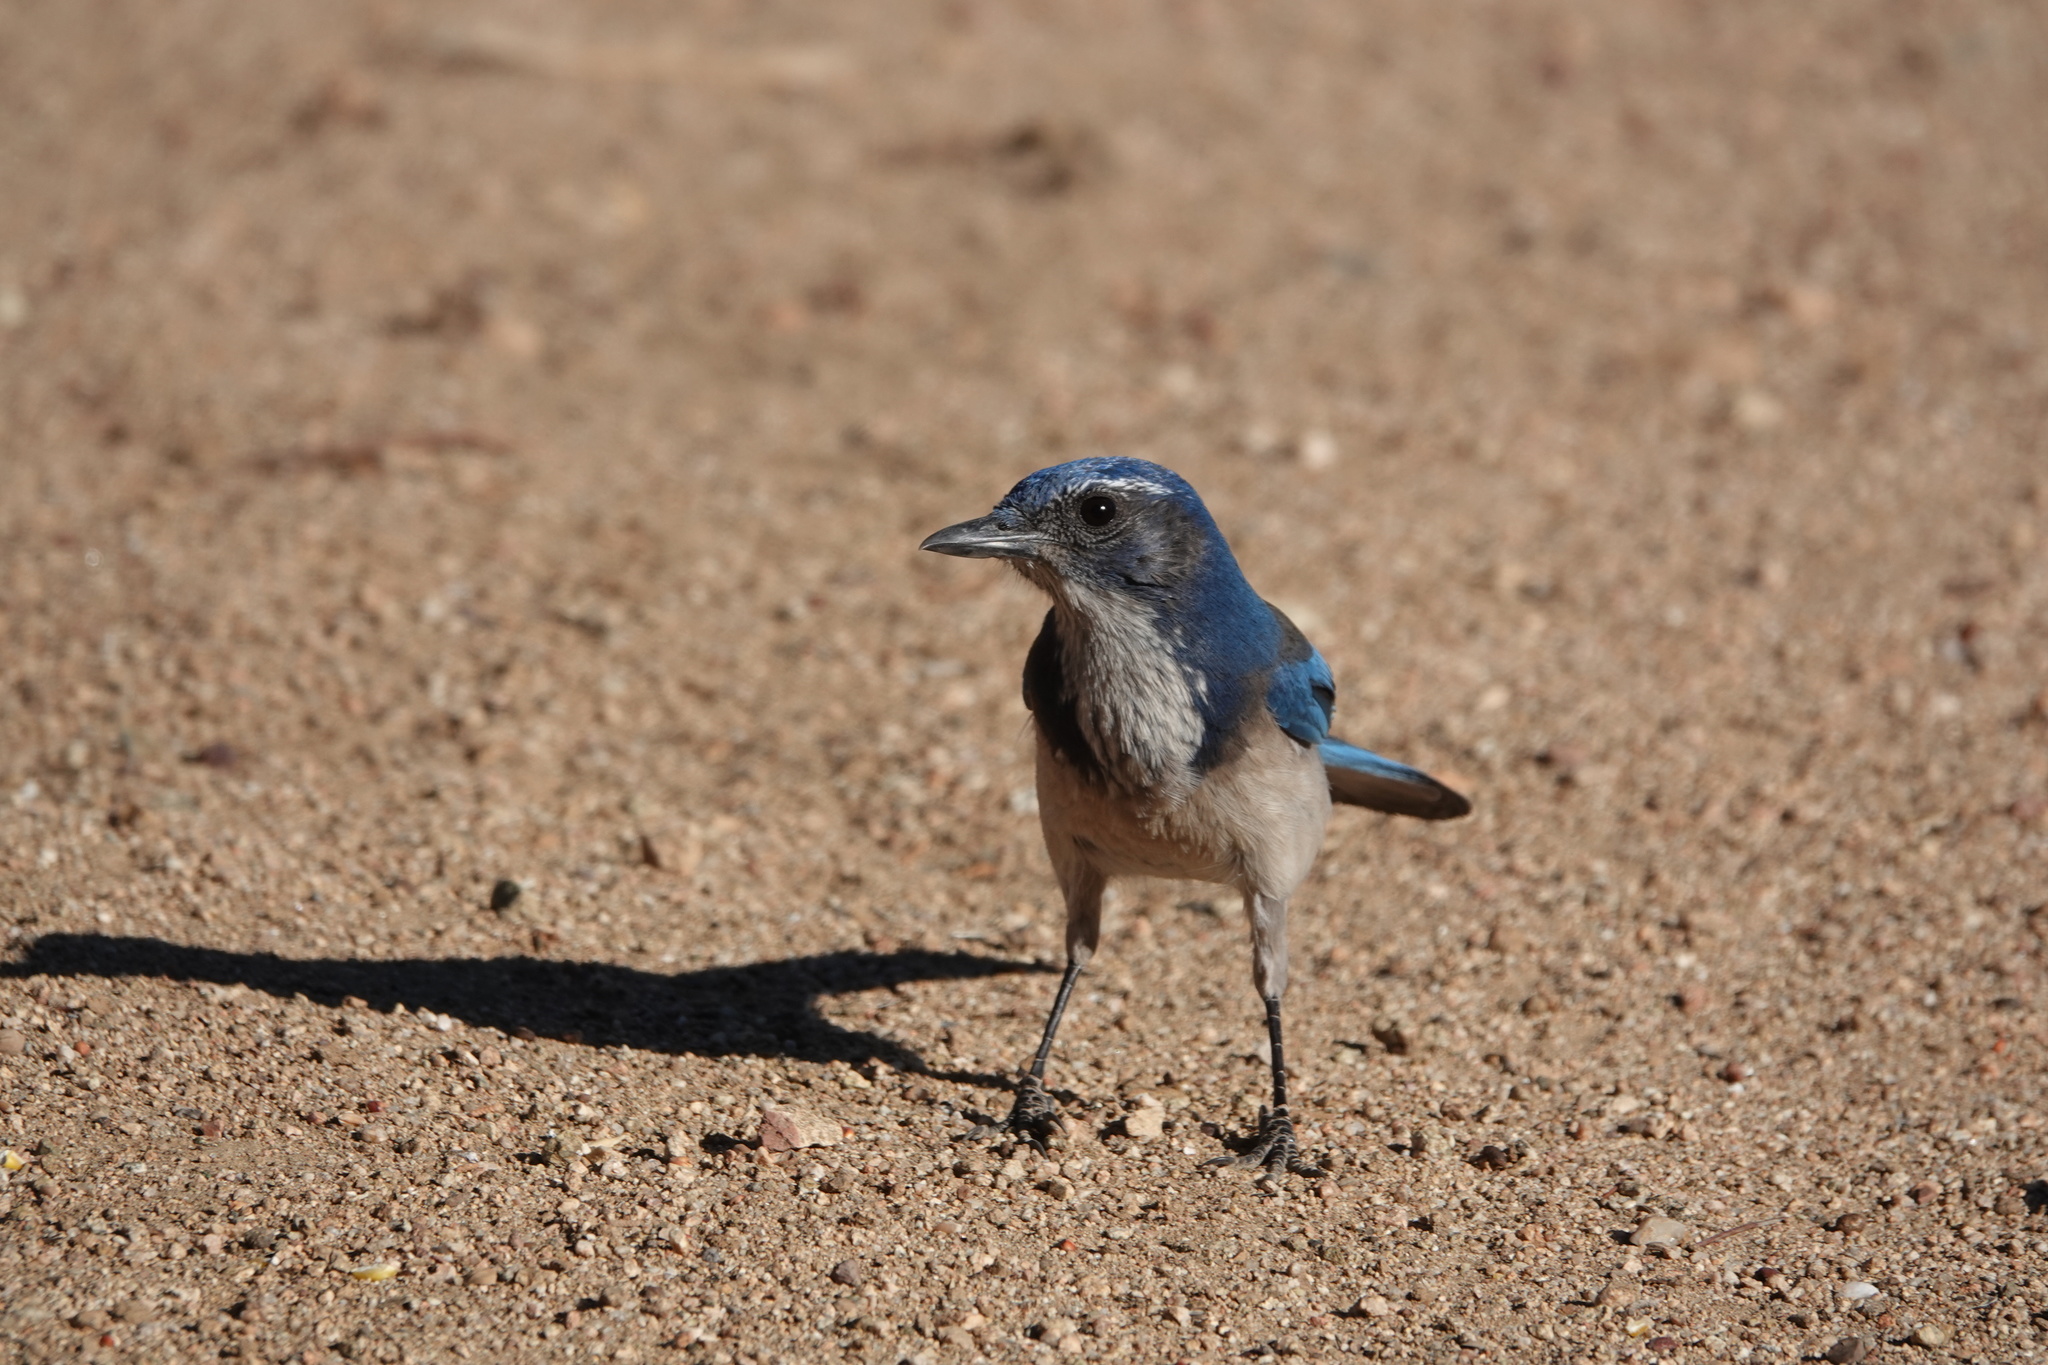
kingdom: Animalia
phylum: Chordata
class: Aves
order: Passeriformes
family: Corvidae
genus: Aphelocoma
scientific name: Aphelocoma californica
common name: California scrub-jay
